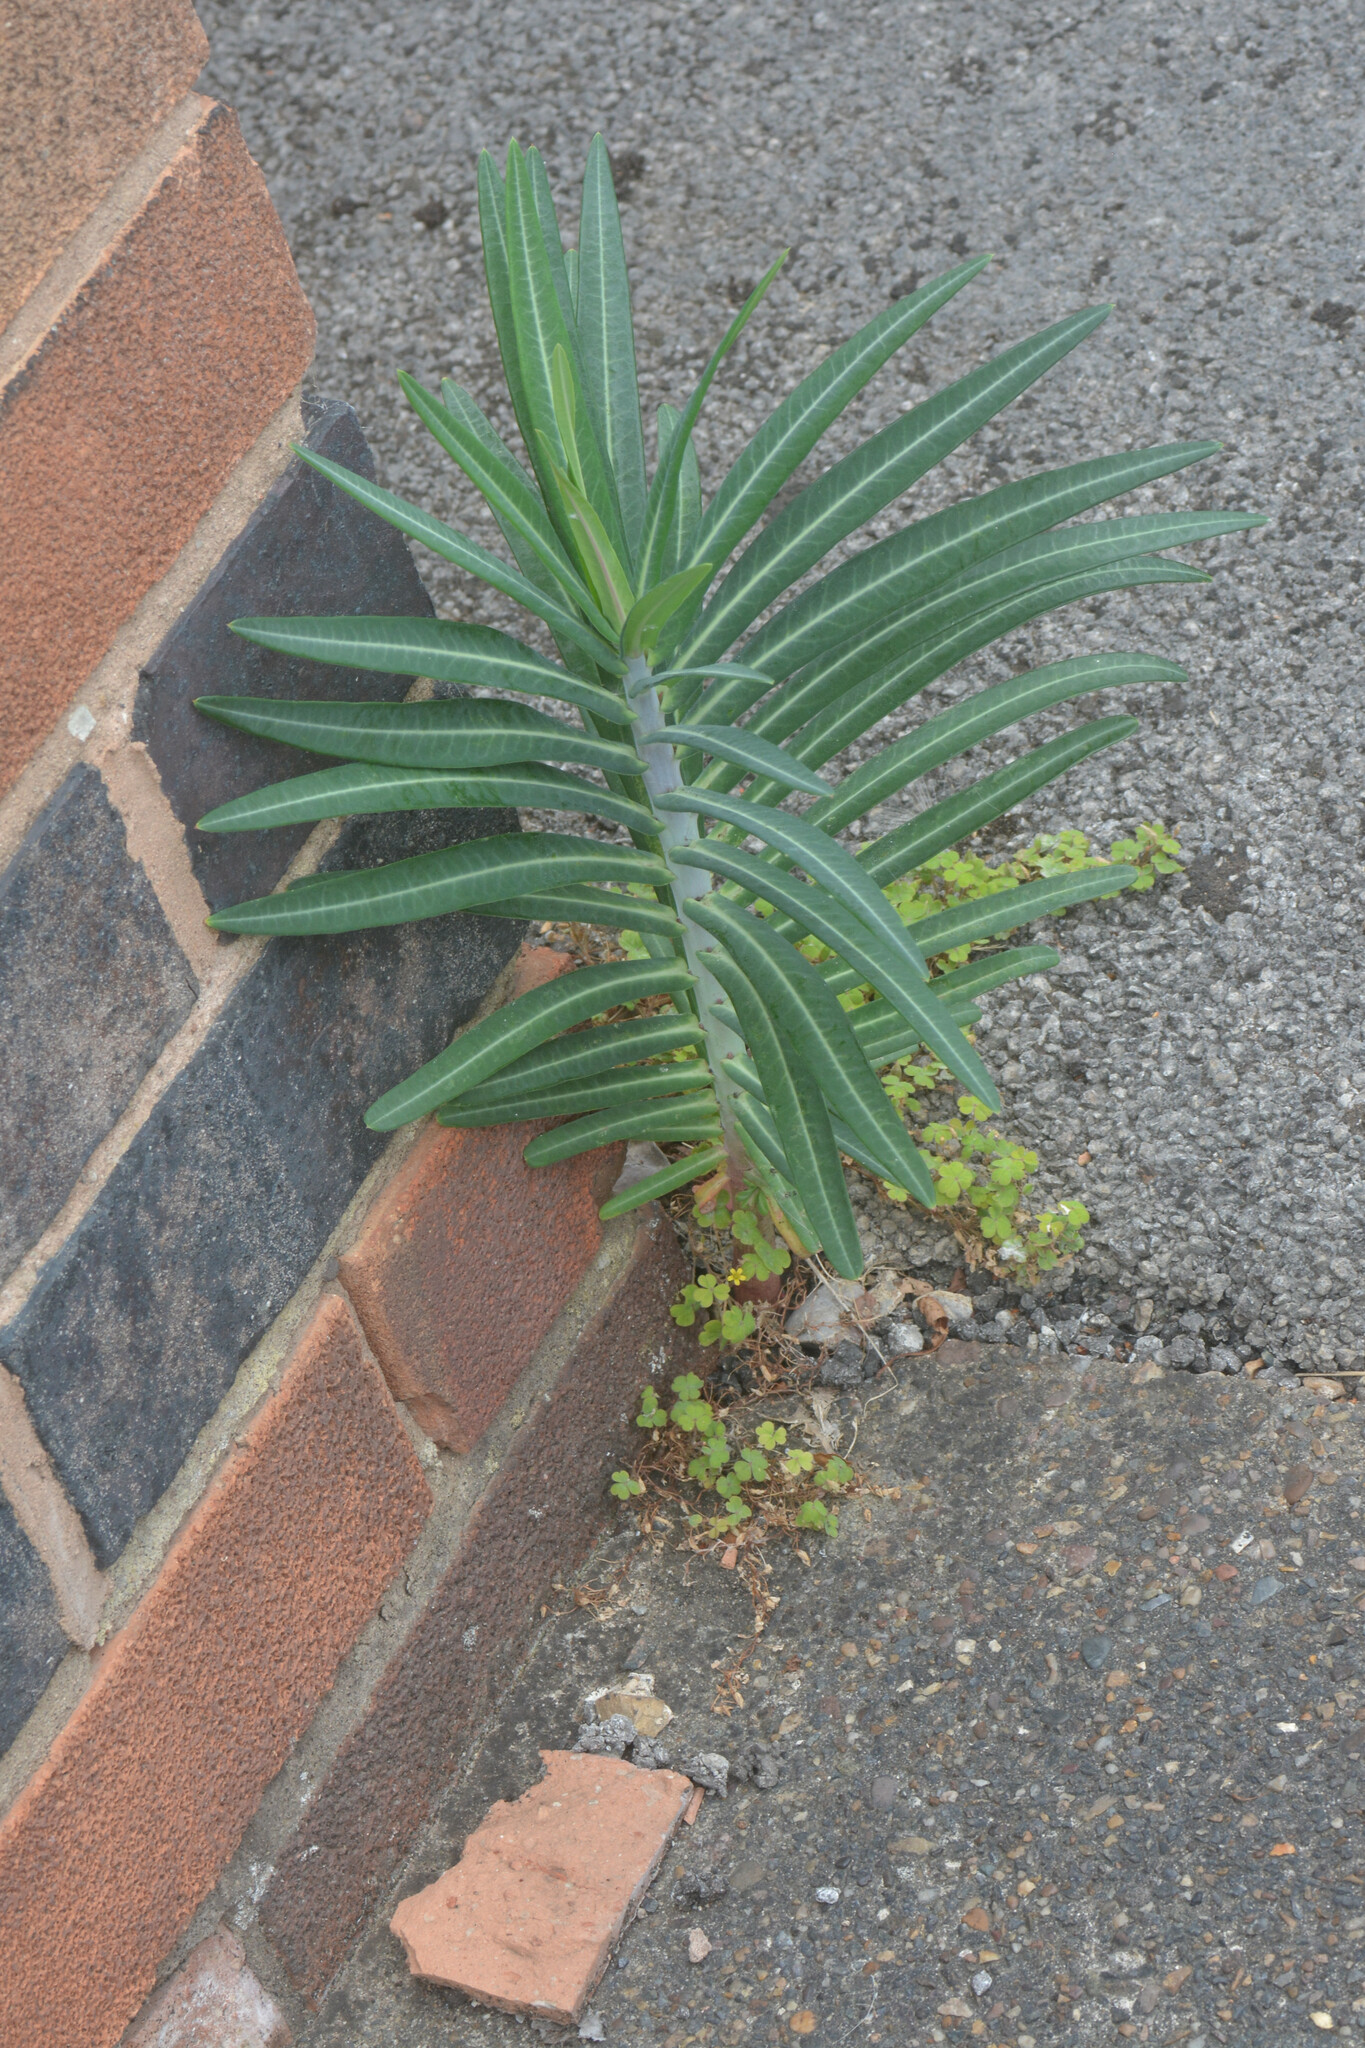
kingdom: Plantae
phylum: Tracheophyta
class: Magnoliopsida
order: Malpighiales
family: Euphorbiaceae
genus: Euphorbia
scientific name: Euphorbia lathyris
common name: Caper spurge
